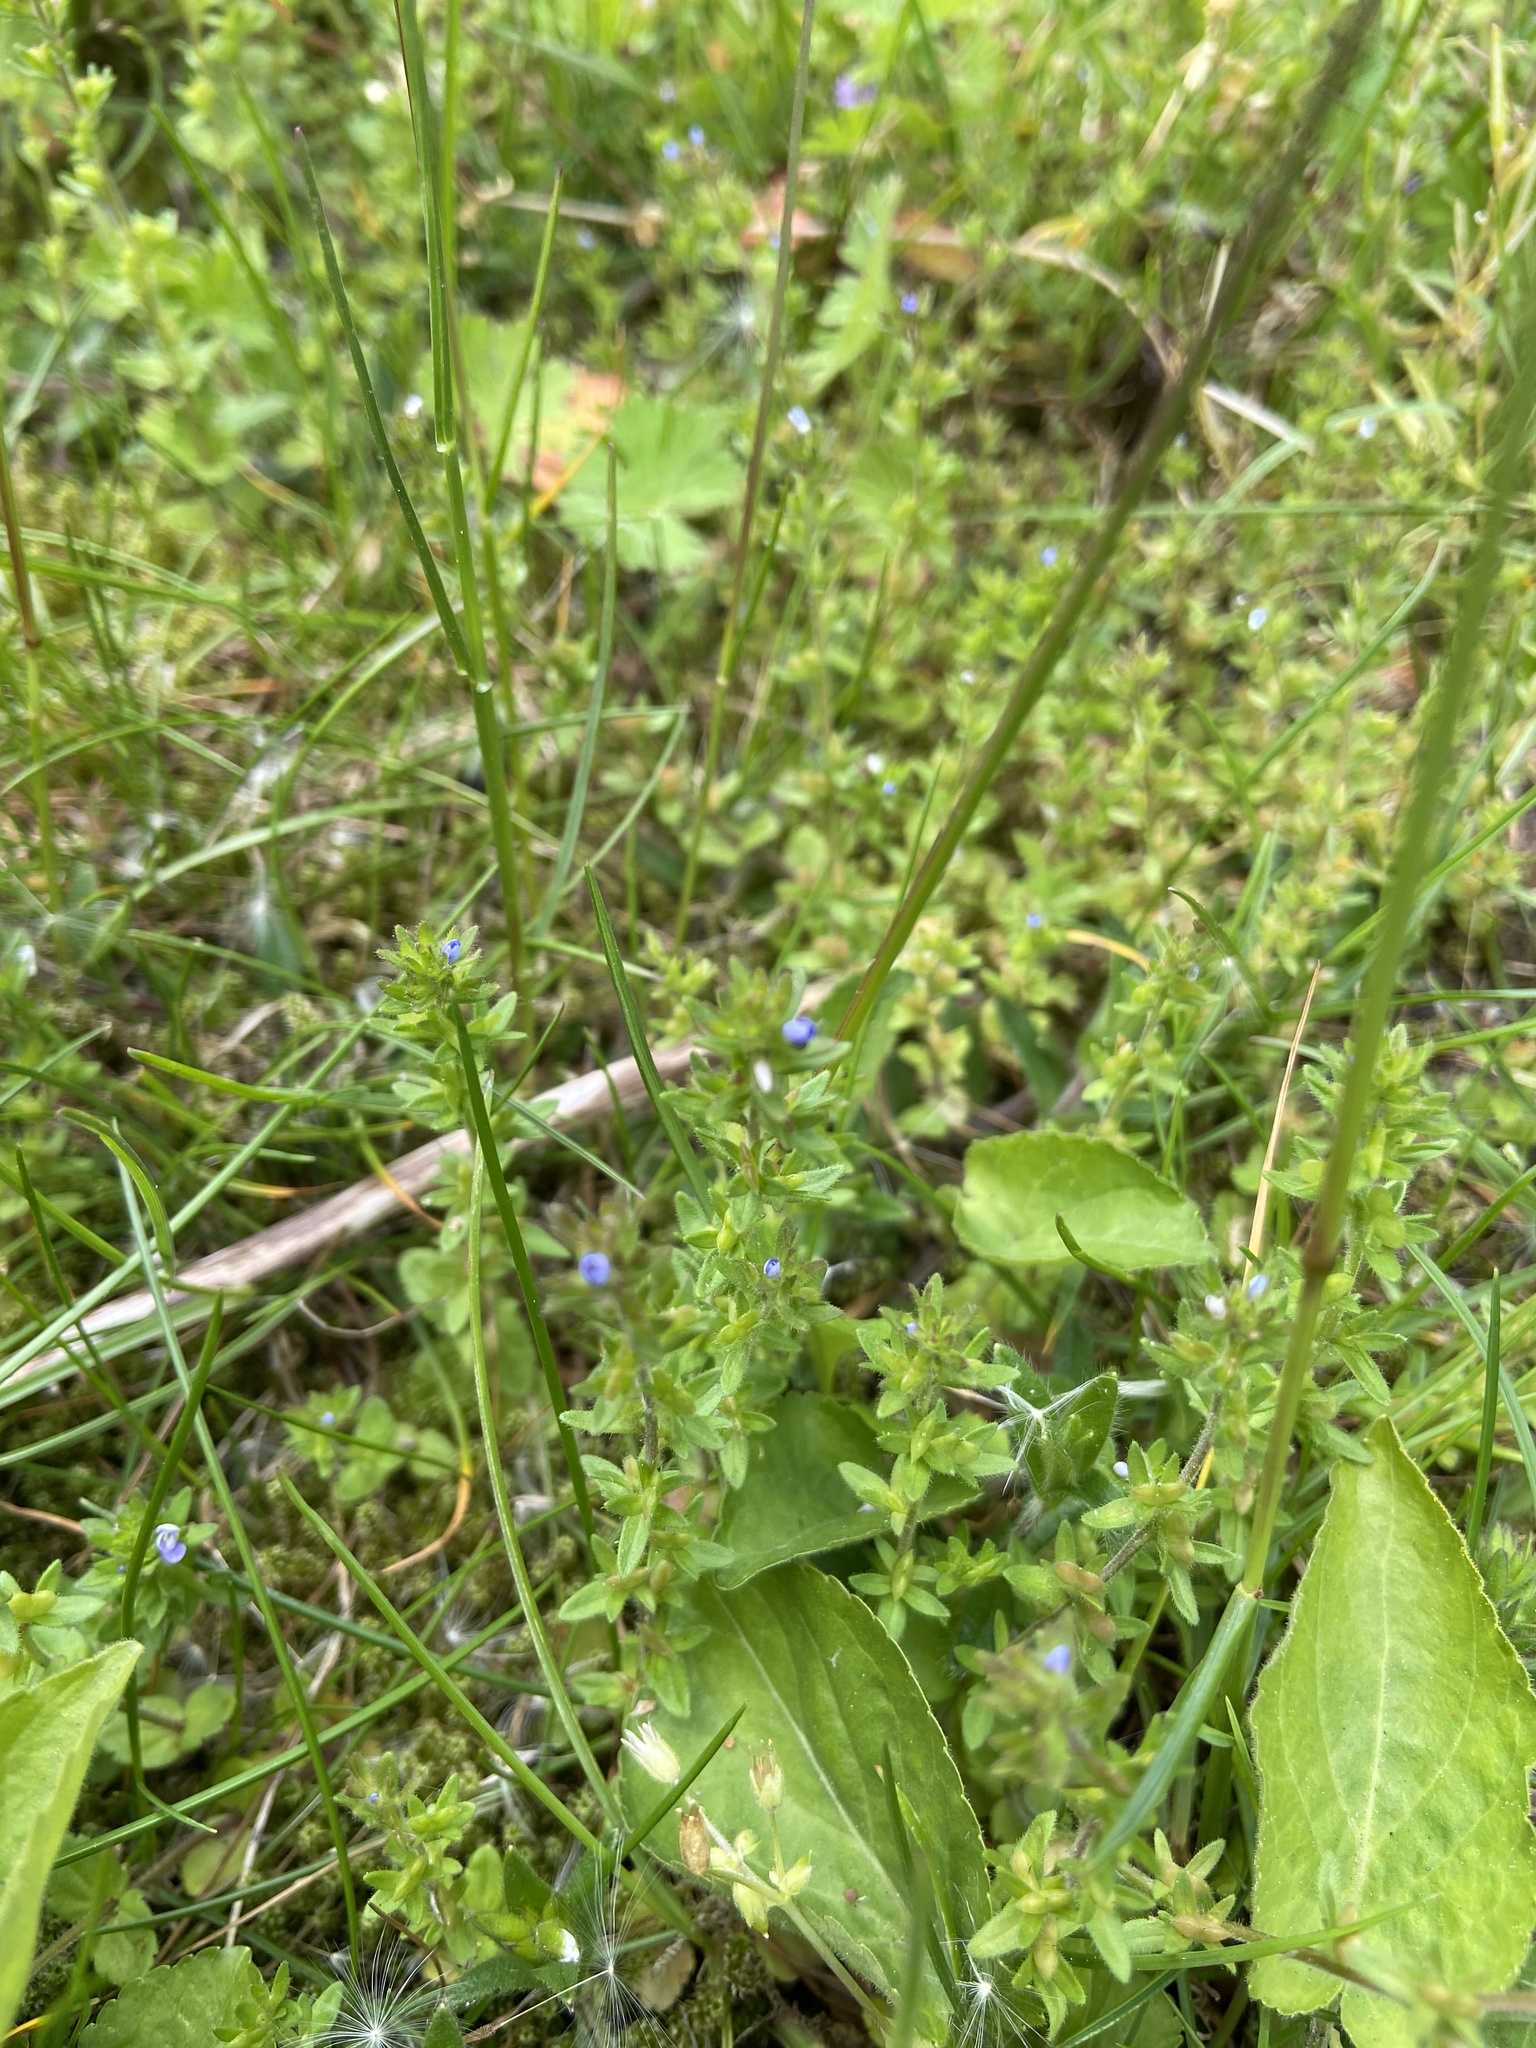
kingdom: Plantae
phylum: Tracheophyta
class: Magnoliopsida
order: Lamiales
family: Plantaginaceae
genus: Veronica
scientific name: Veronica arvensis
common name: Corn speedwell
